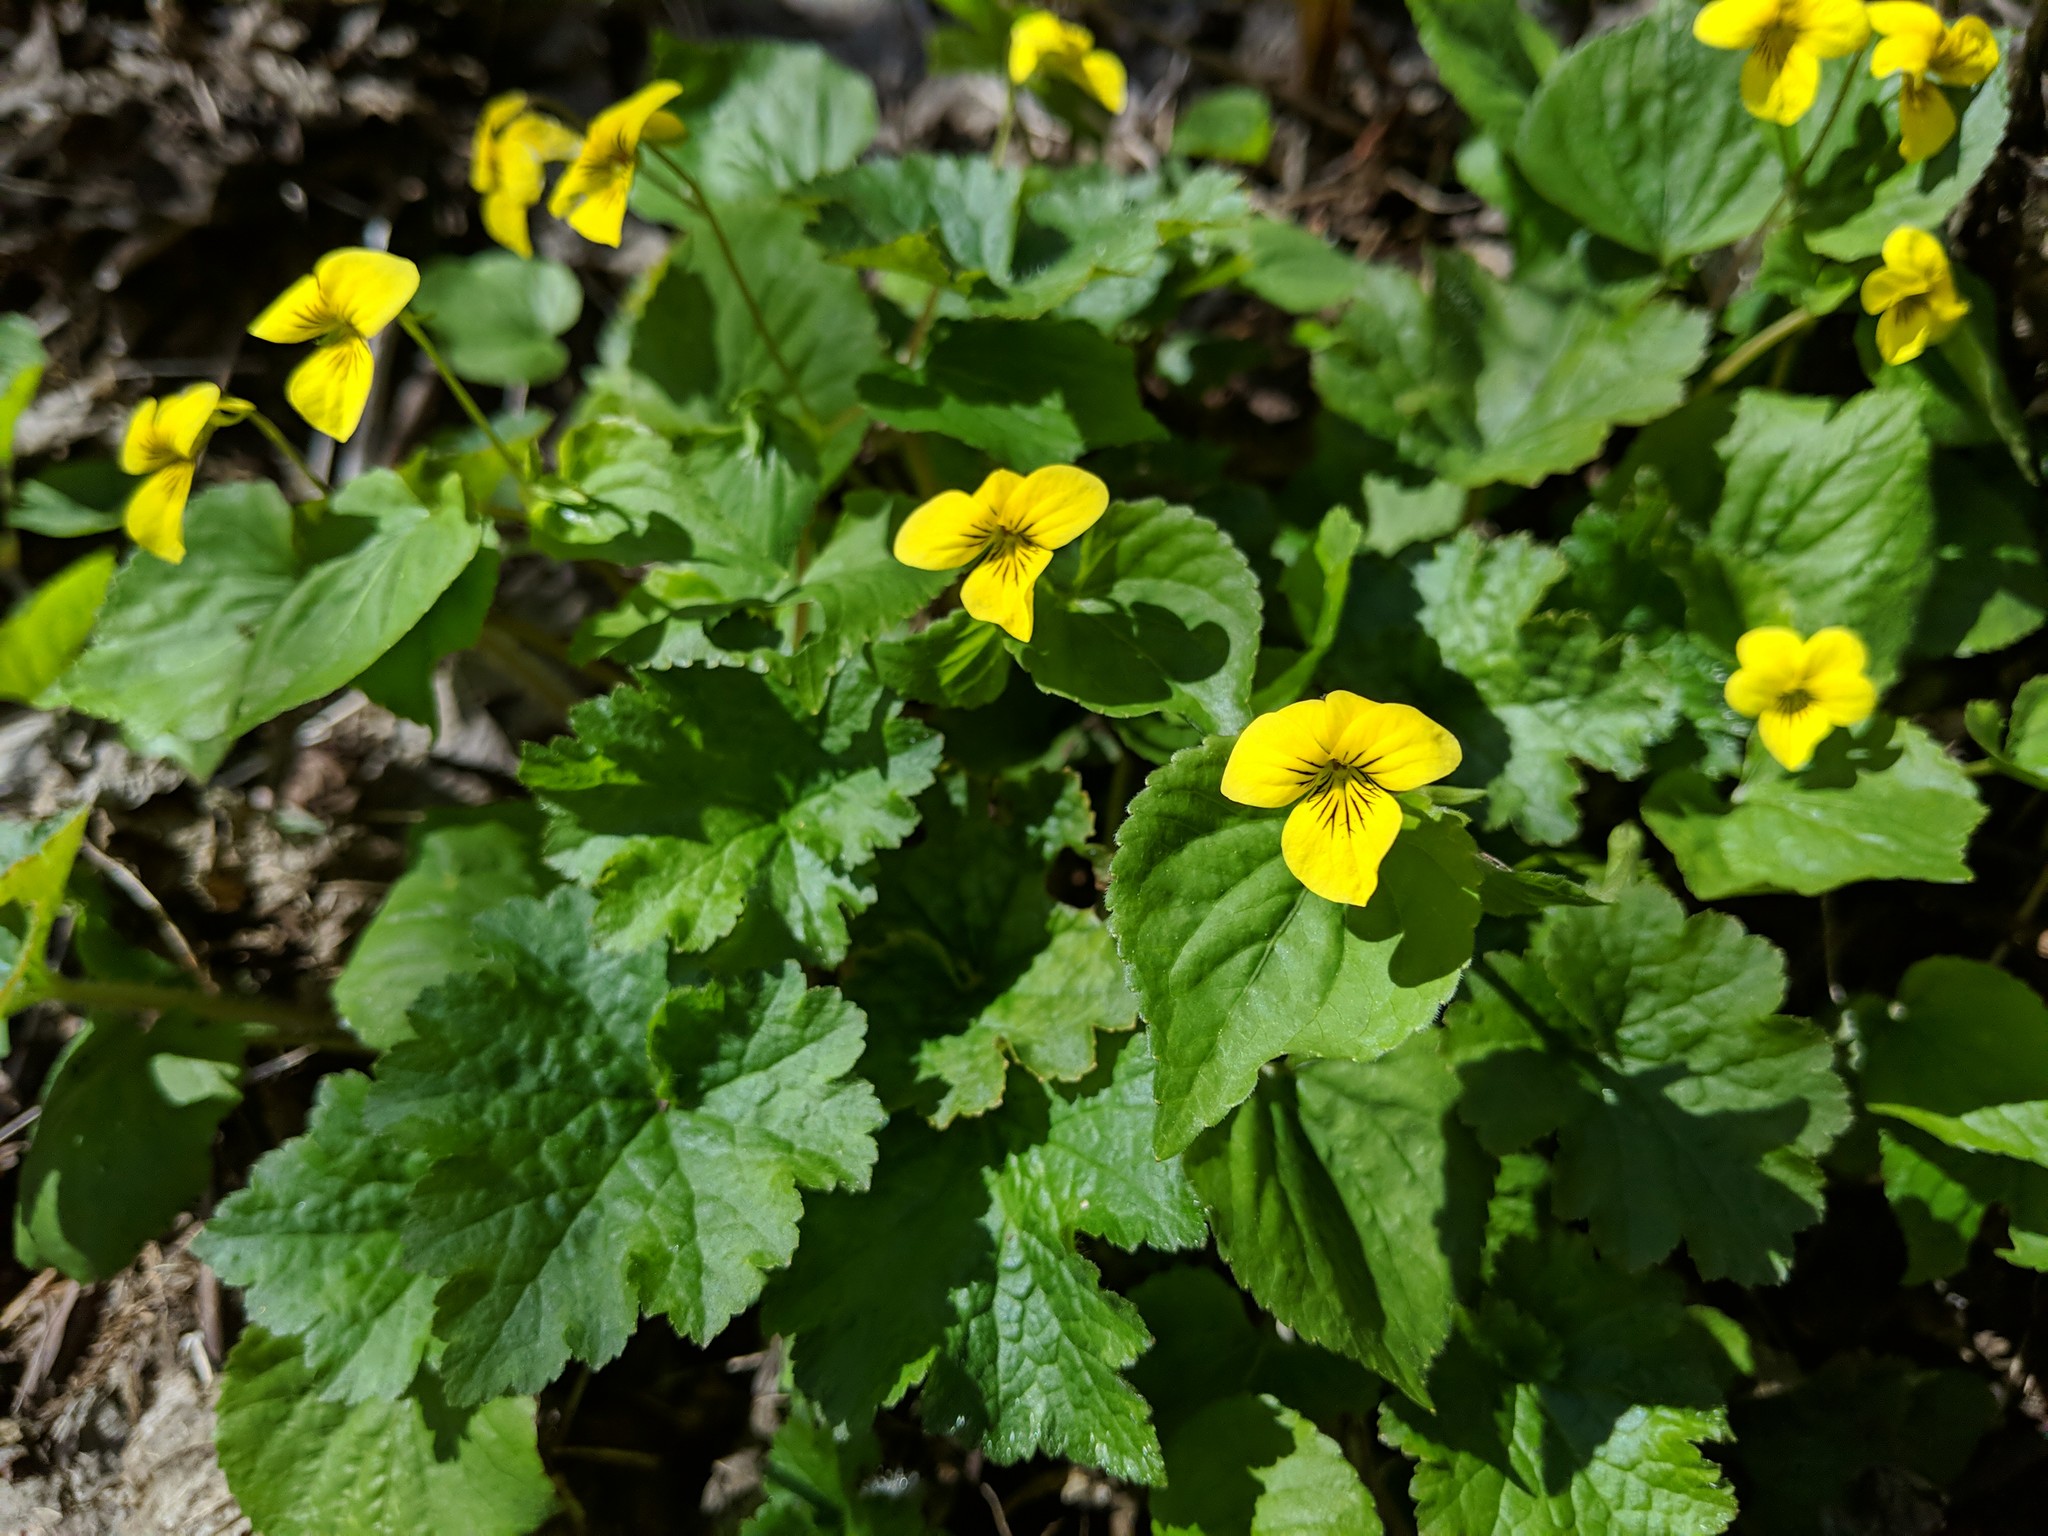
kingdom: Plantae
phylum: Tracheophyta
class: Magnoliopsida
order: Malpighiales
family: Violaceae
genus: Viola
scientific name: Viola glabella
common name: Stream violet
